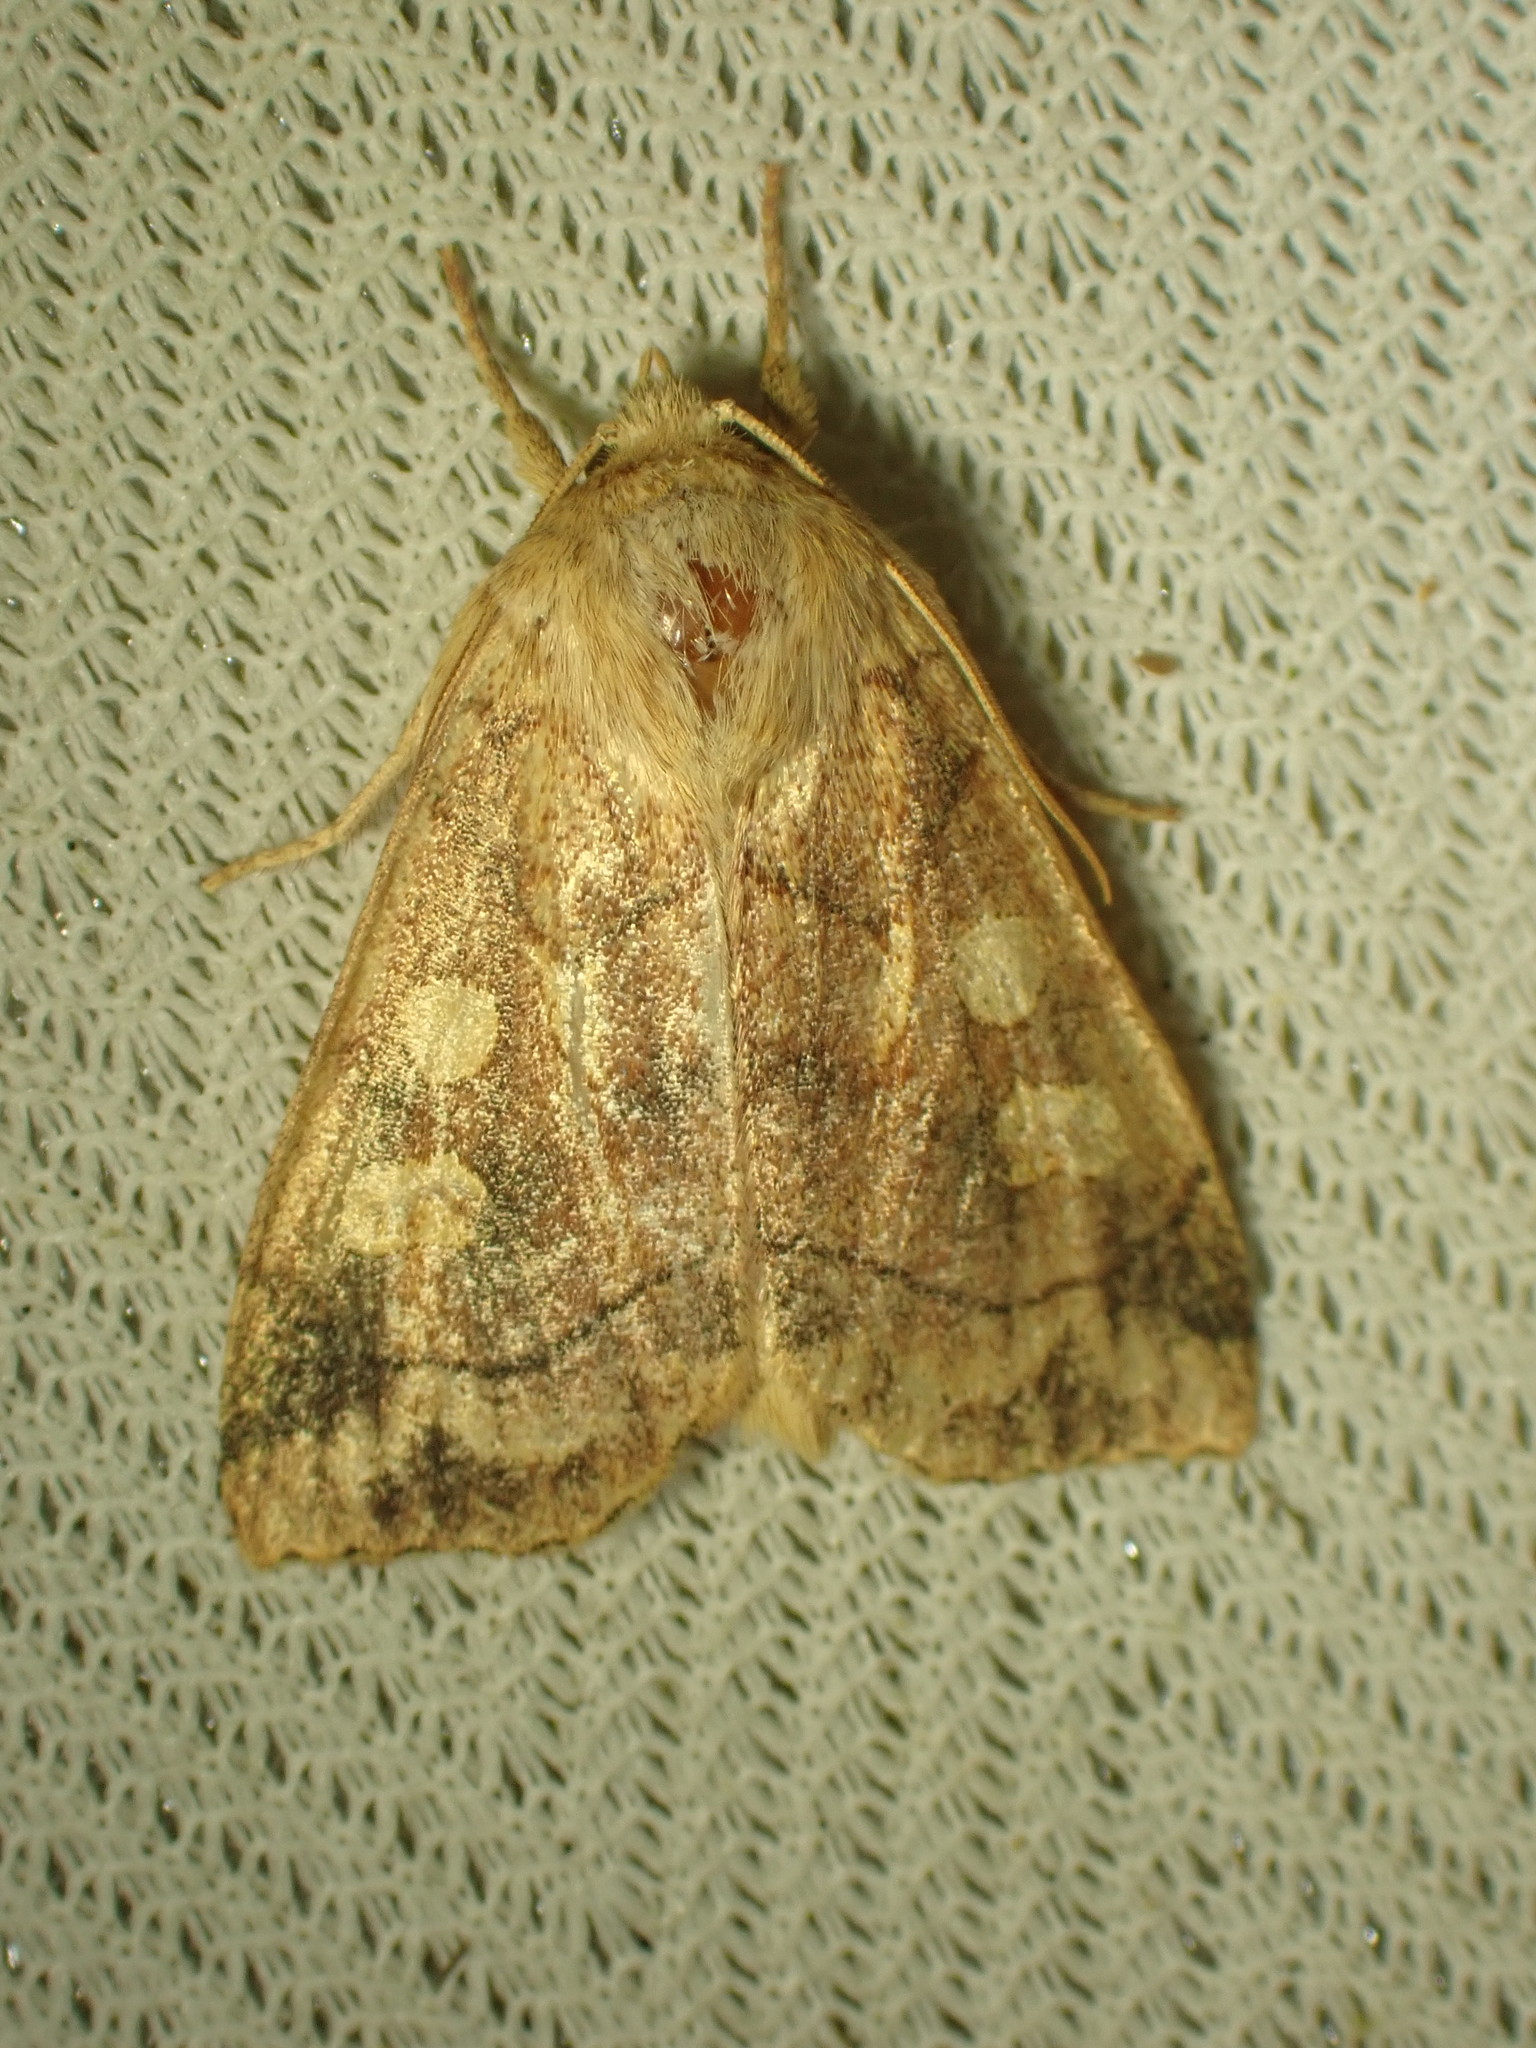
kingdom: Animalia
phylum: Arthropoda
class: Insecta
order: Lepidoptera
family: Noctuidae
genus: Enargia
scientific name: Enargia decolor
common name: Aspen twoleaf tier moth
